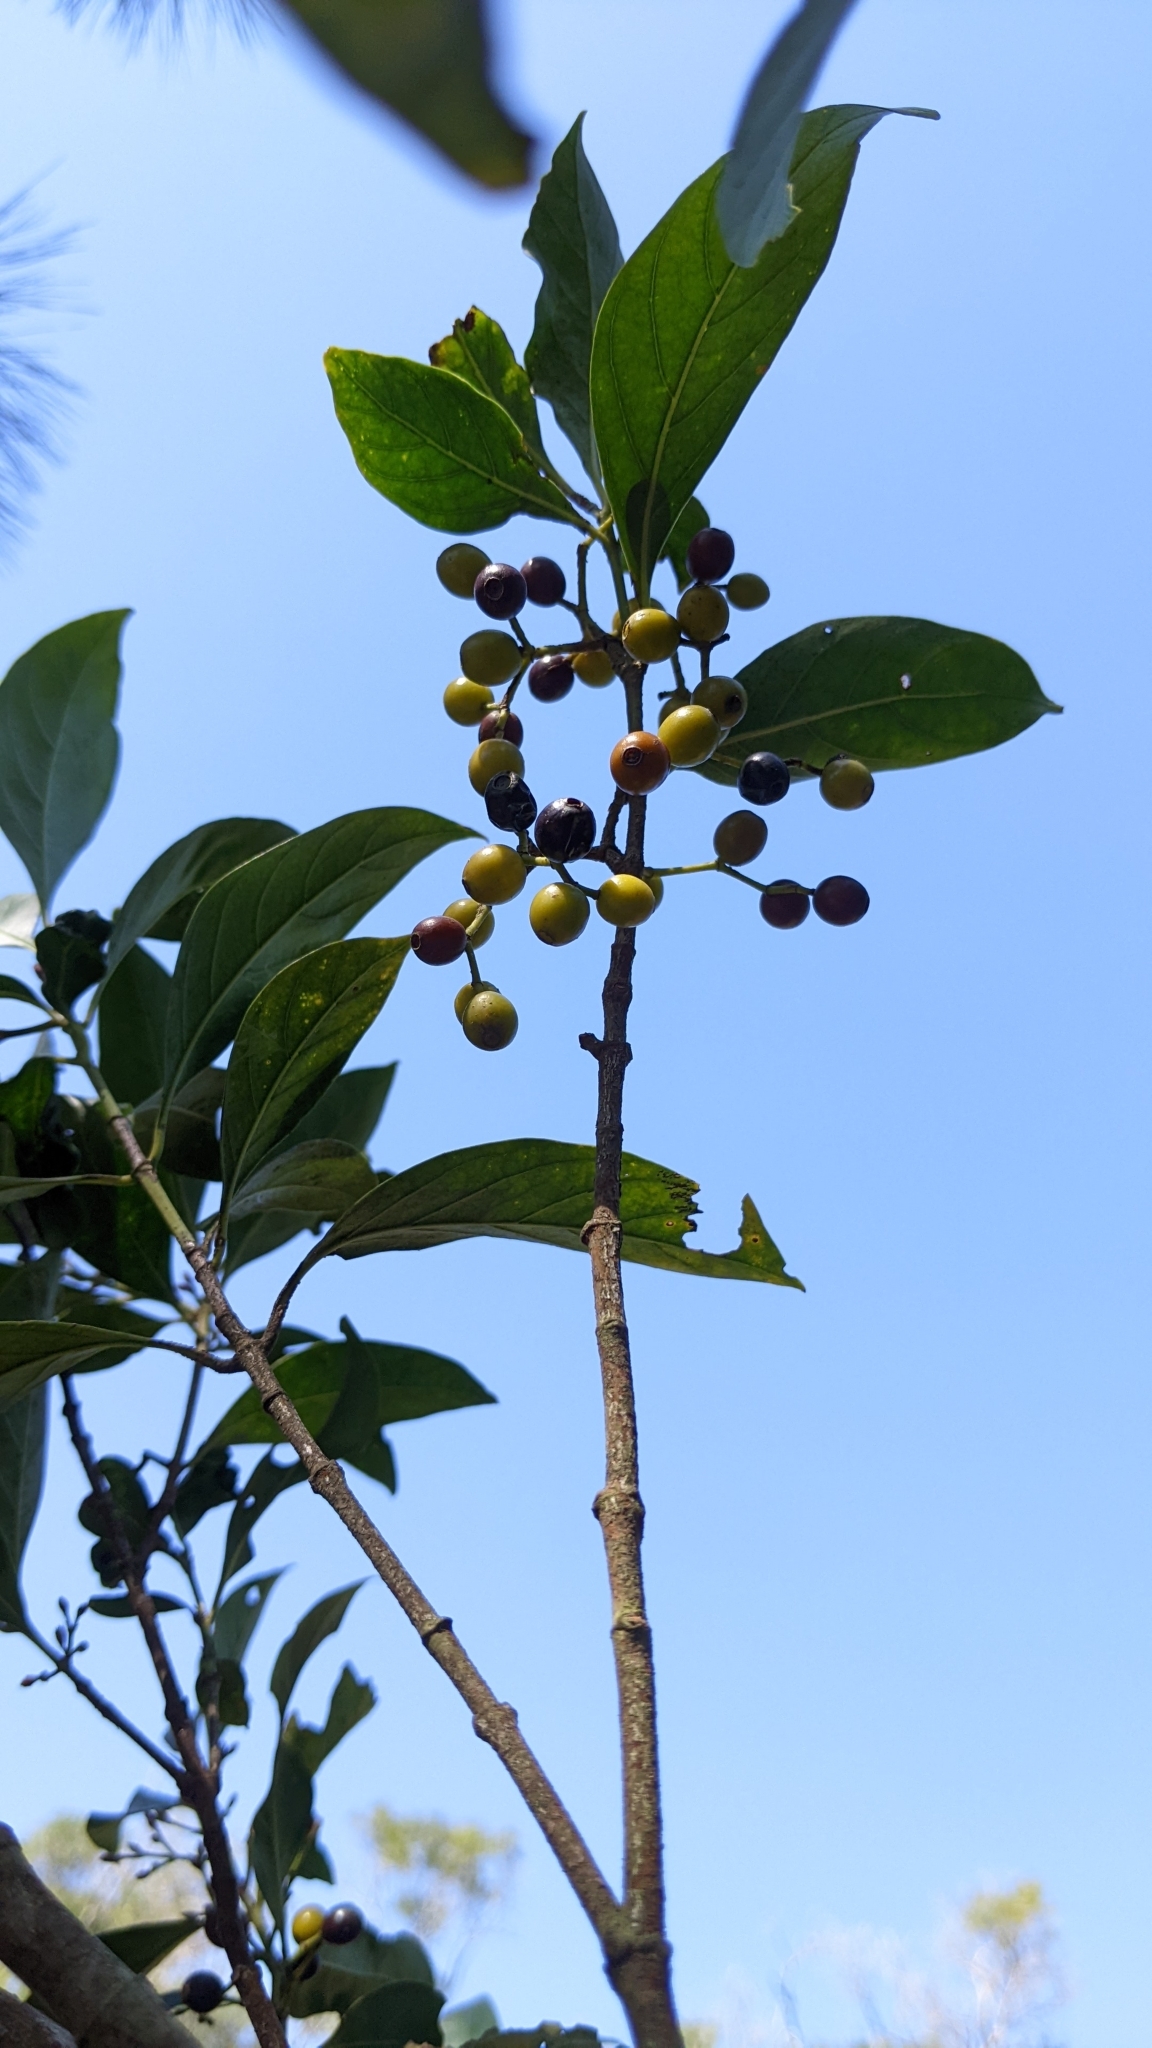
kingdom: Plantae
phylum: Tracheophyta
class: Magnoliopsida
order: Gentianales
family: Rubiaceae
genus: Aidia
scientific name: Aidia cochinchinensis
